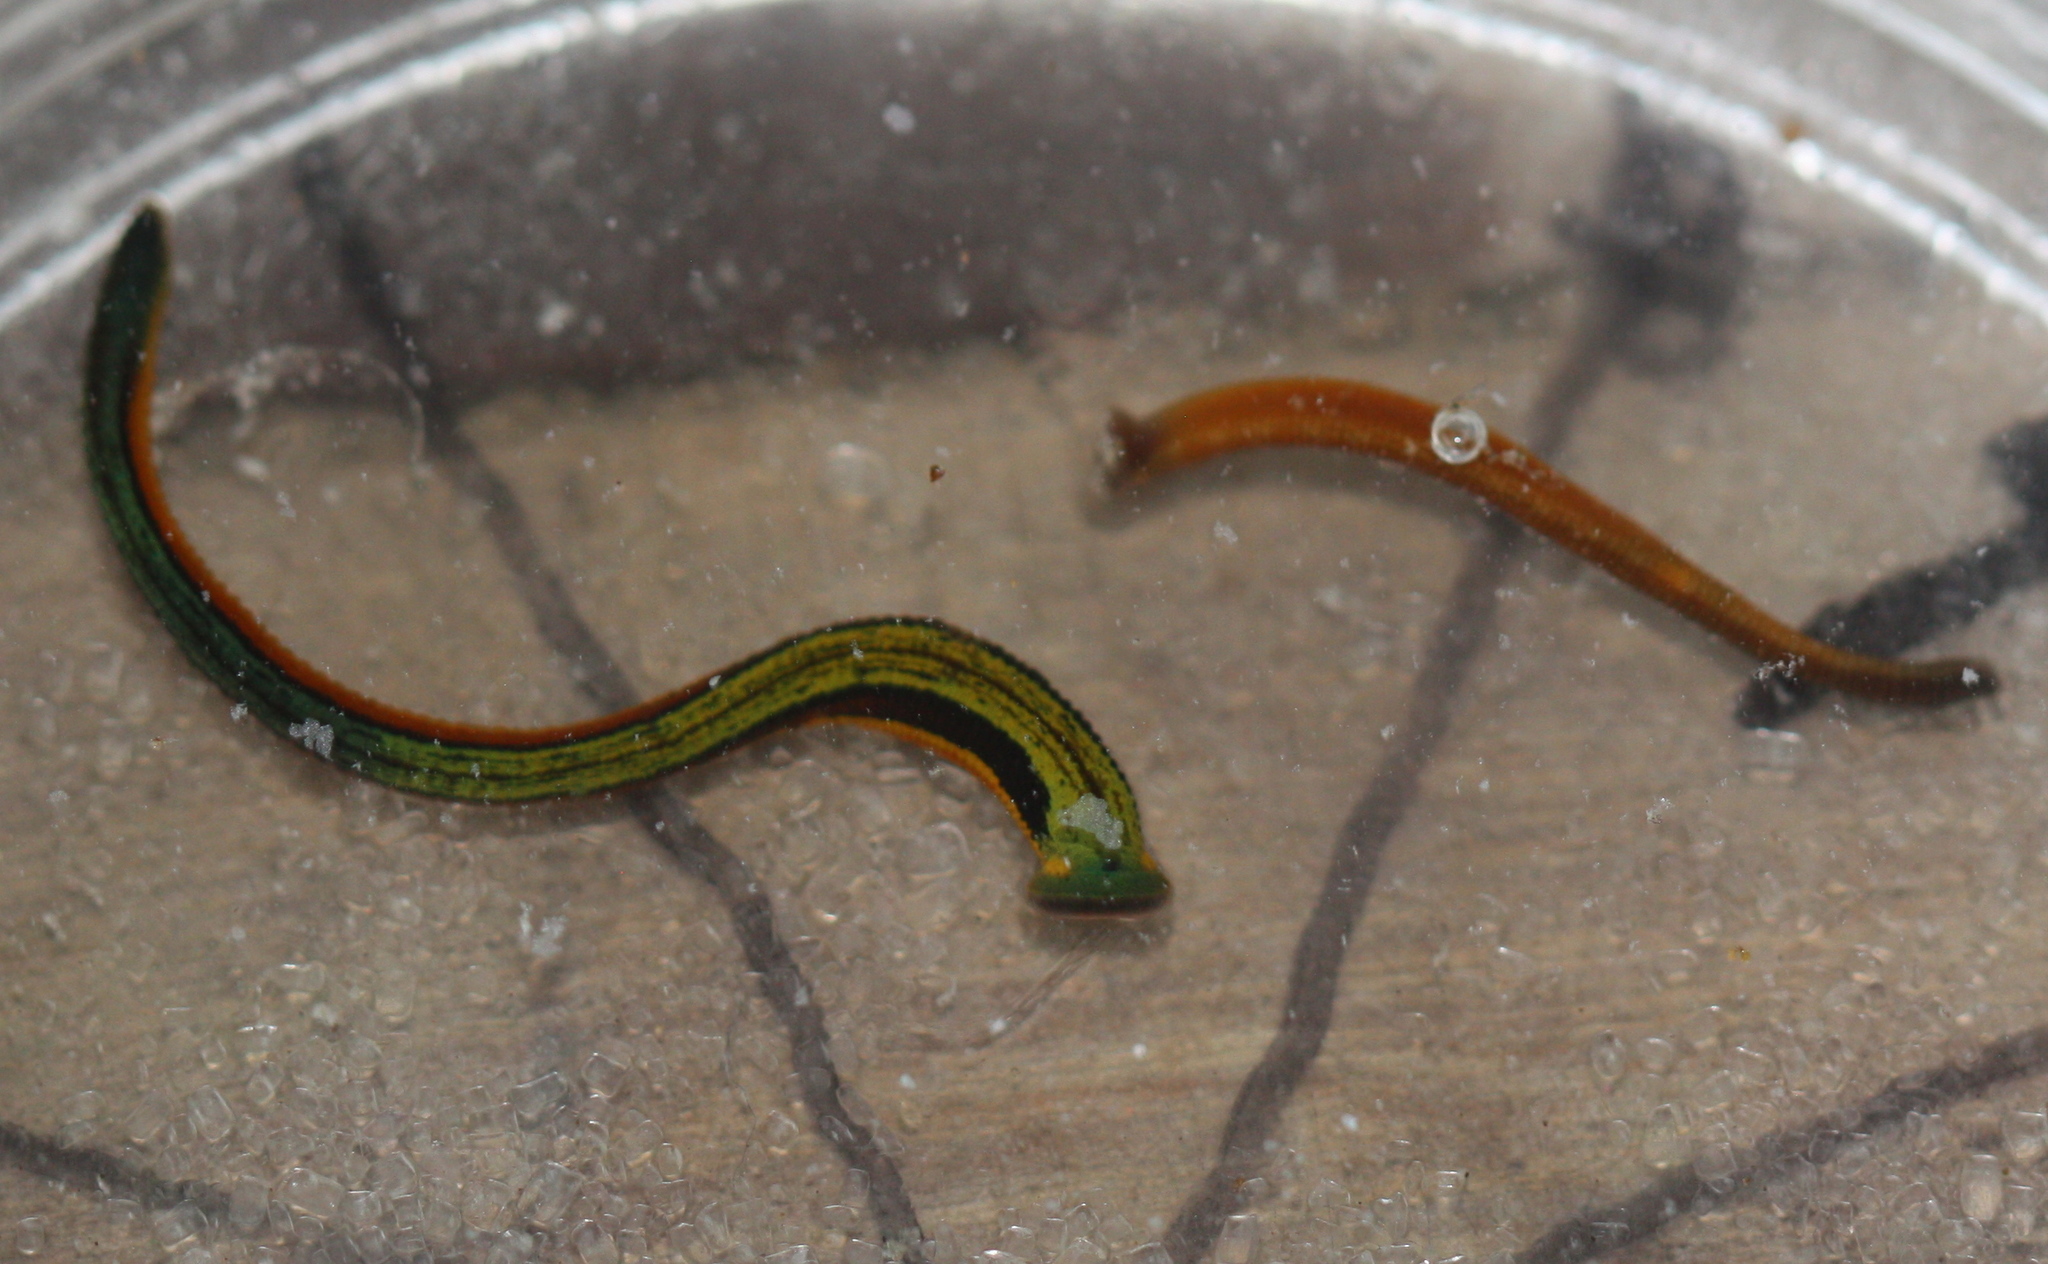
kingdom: Animalia
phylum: Annelida
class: Clitellata
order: Arhynchobdellida
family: Haemadipsidae
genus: Haemadipsa
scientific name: Haemadipsa zeylanica
